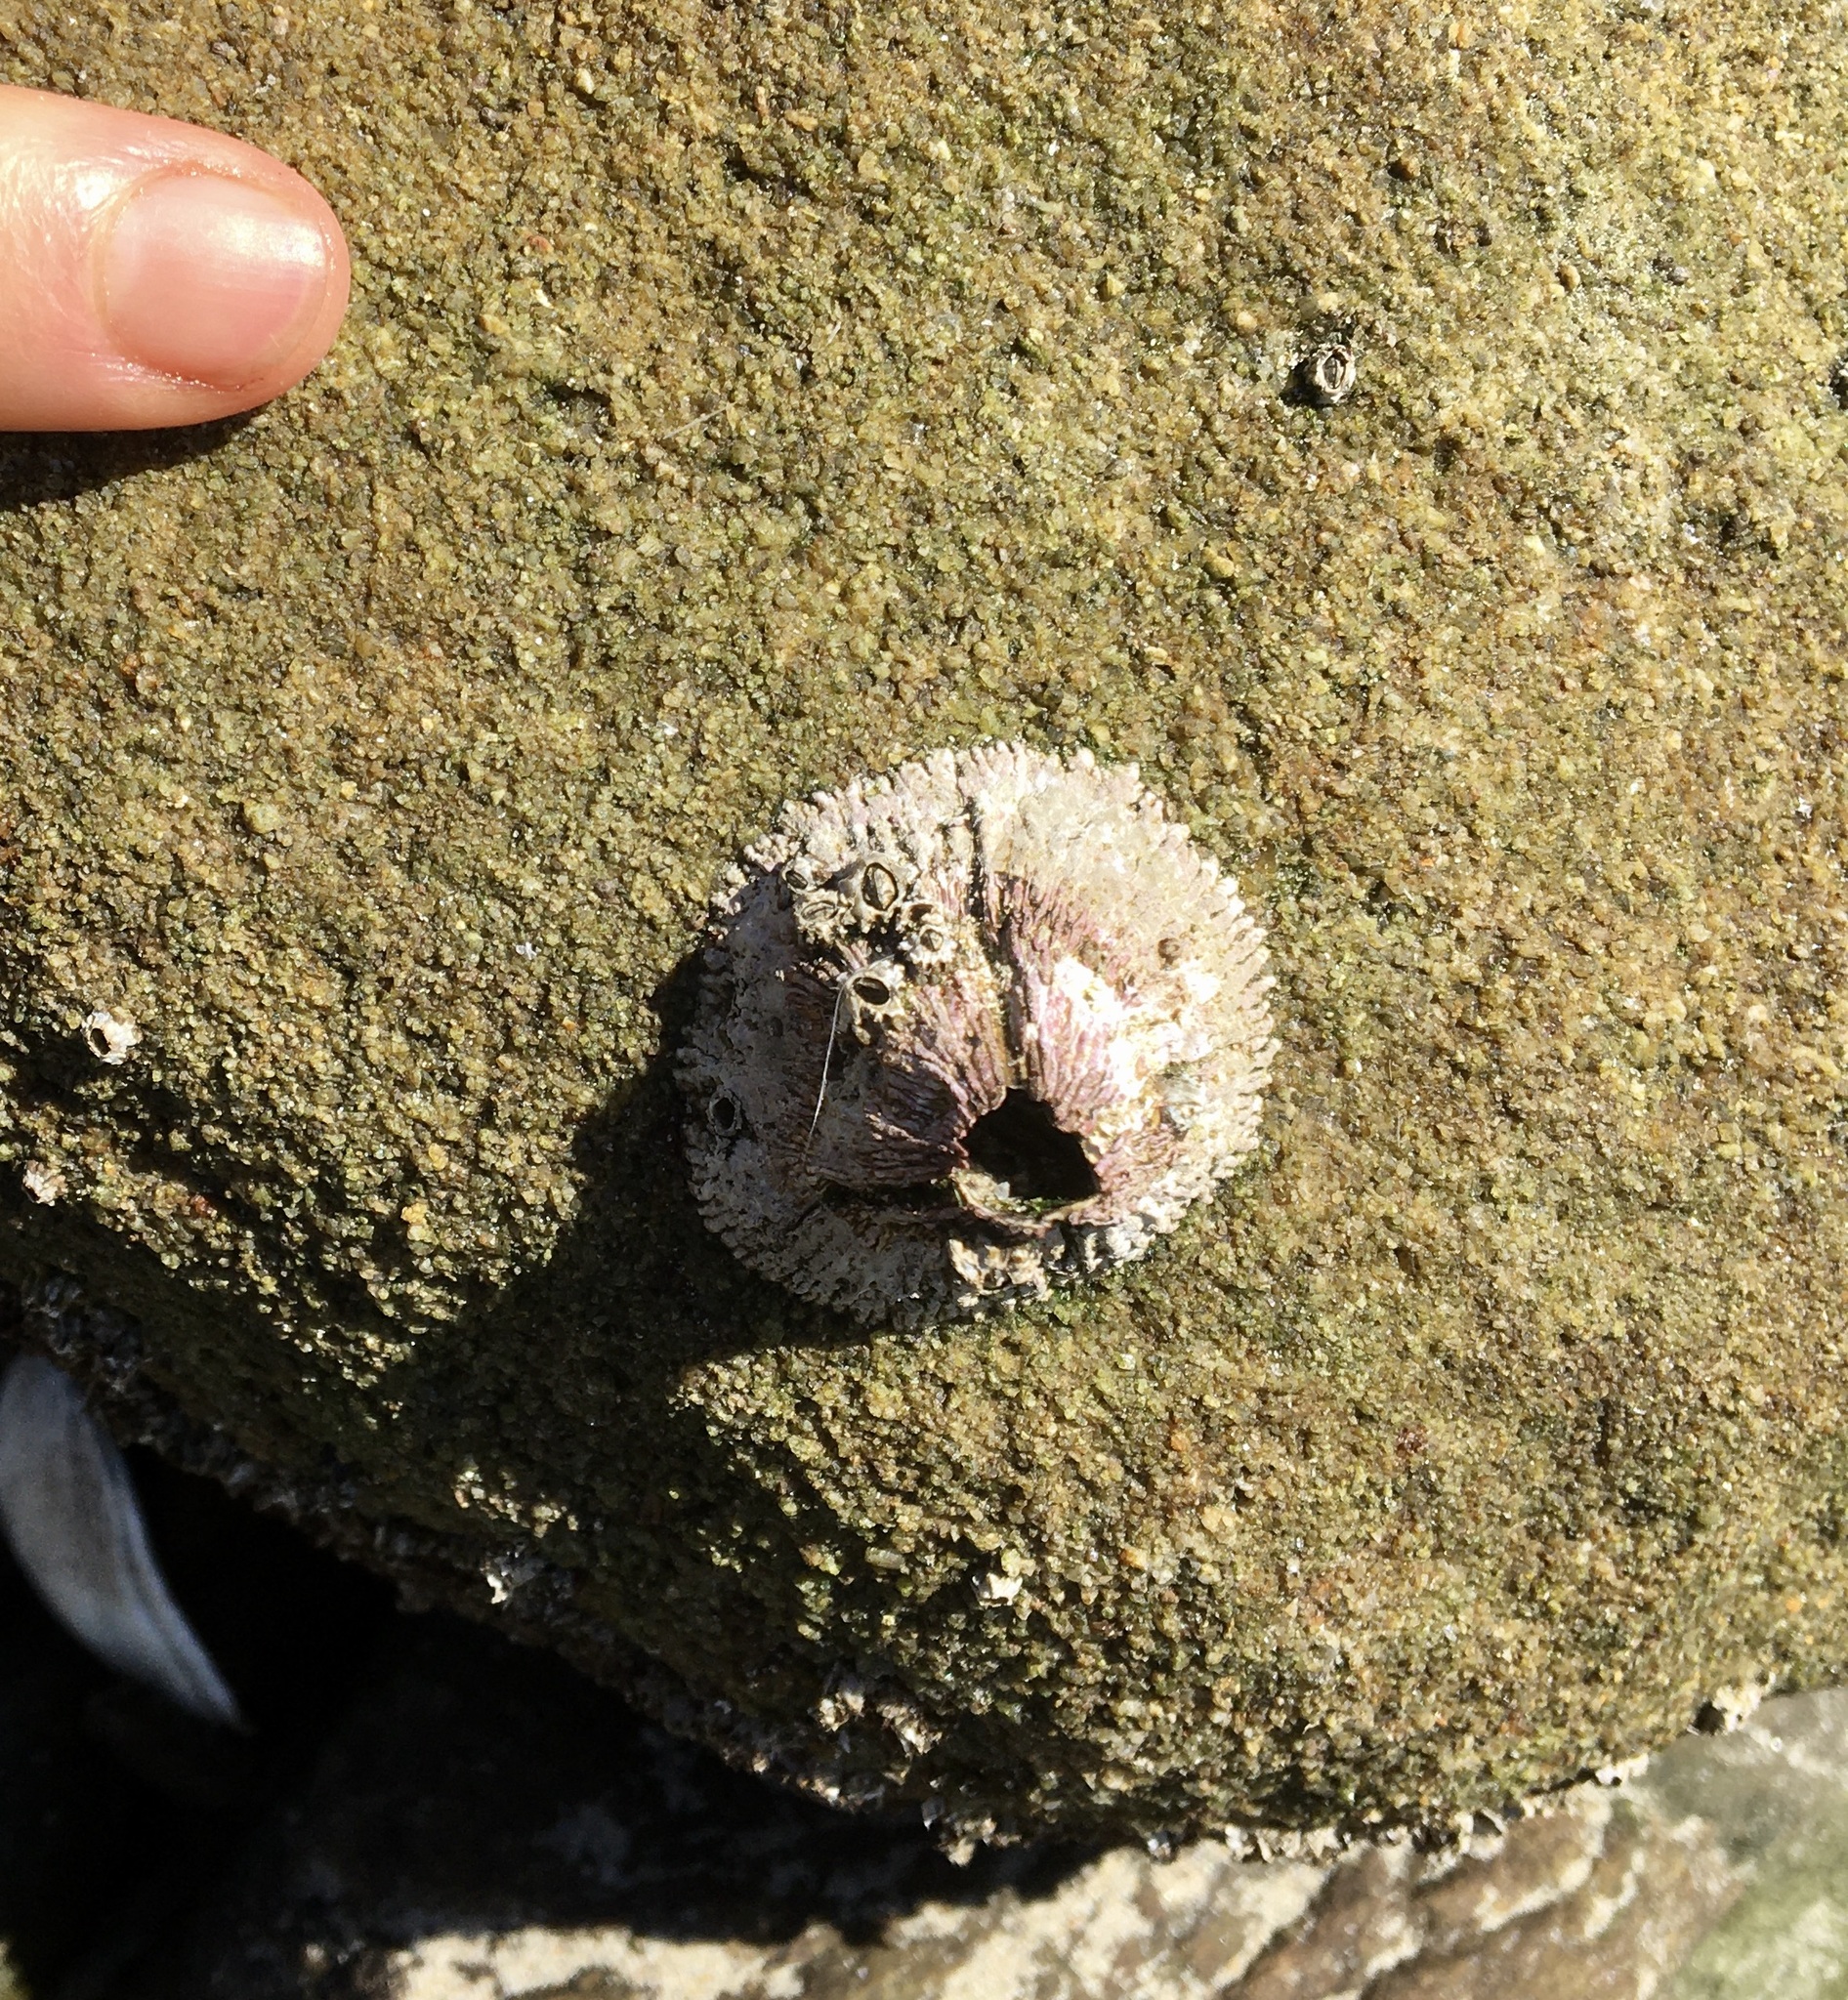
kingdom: Animalia
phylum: Arthropoda
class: Maxillopoda
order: Sessilia
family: Tetraclitidae
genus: Tetraclita
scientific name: Tetraclita rubescens
